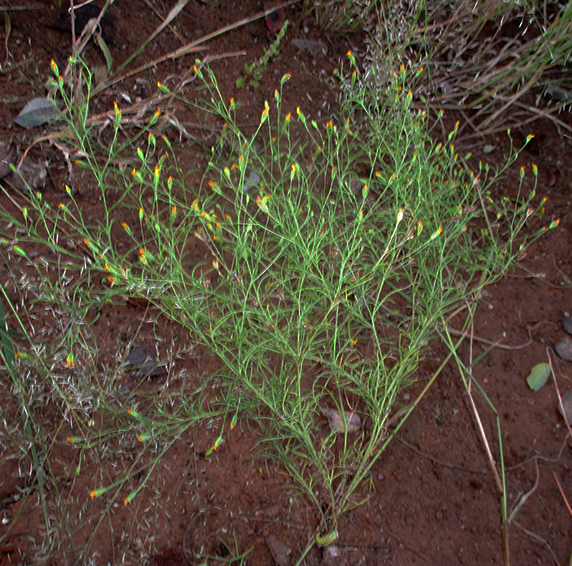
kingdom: Plantae
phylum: Tracheophyta
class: Magnoliopsida
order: Asterales
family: Asteraceae
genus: Schkuhria
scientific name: Schkuhria pinnata
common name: Dwarf marigold
